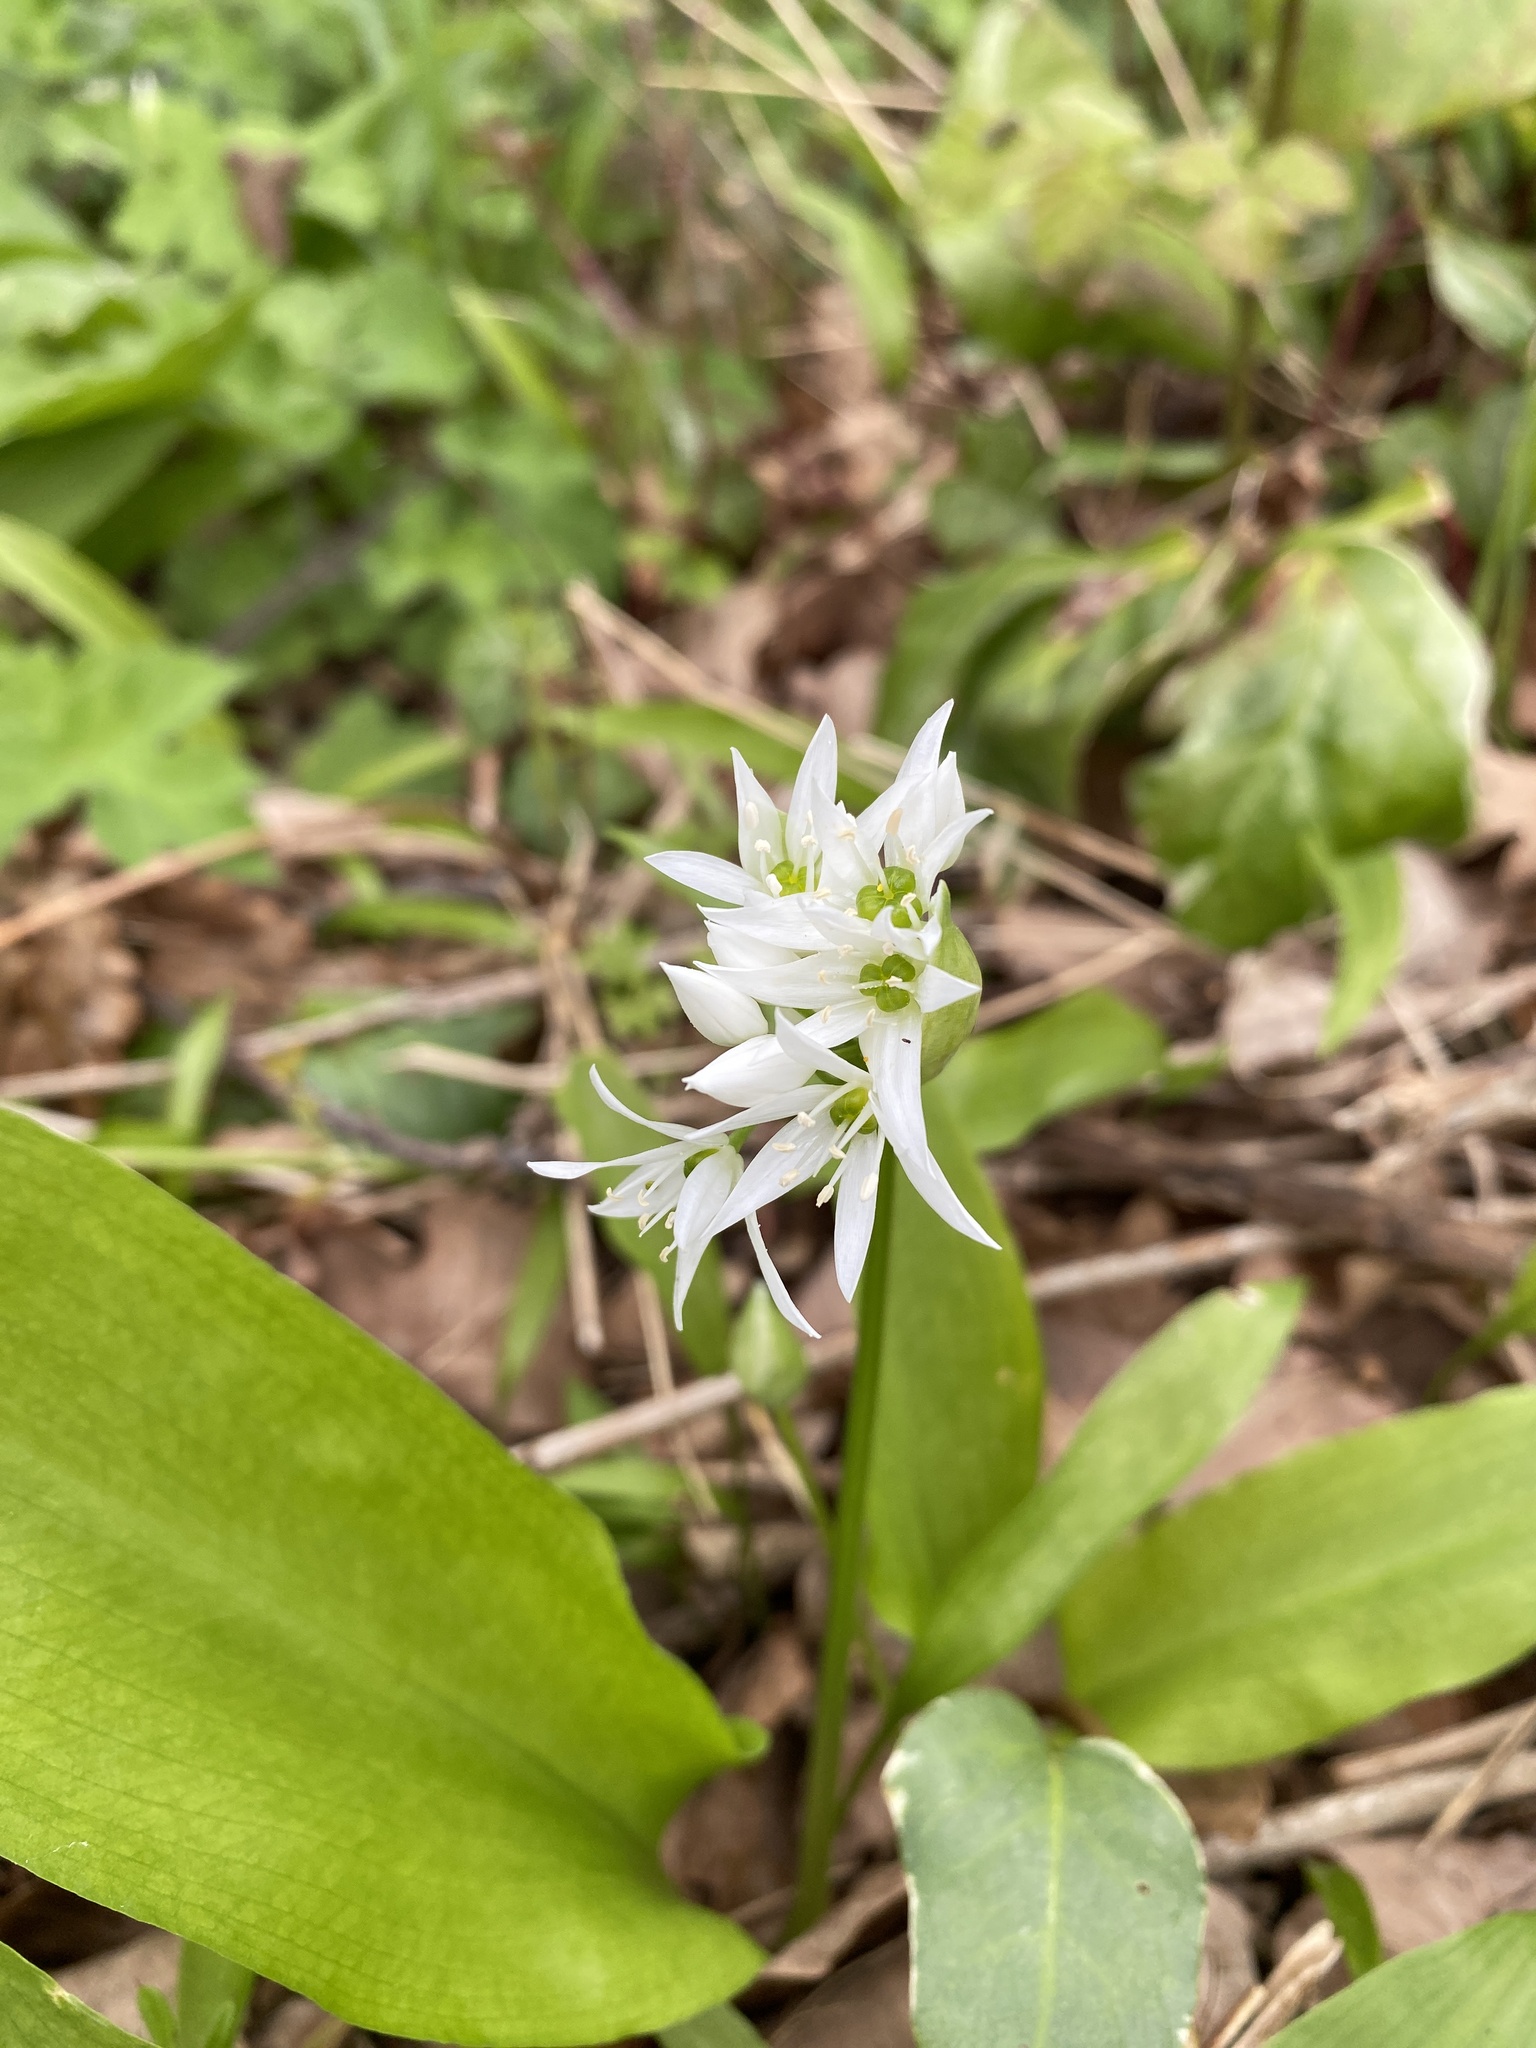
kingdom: Plantae
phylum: Tracheophyta
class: Liliopsida
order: Asparagales
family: Amaryllidaceae
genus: Allium
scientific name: Allium ursinum
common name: Ramsons
